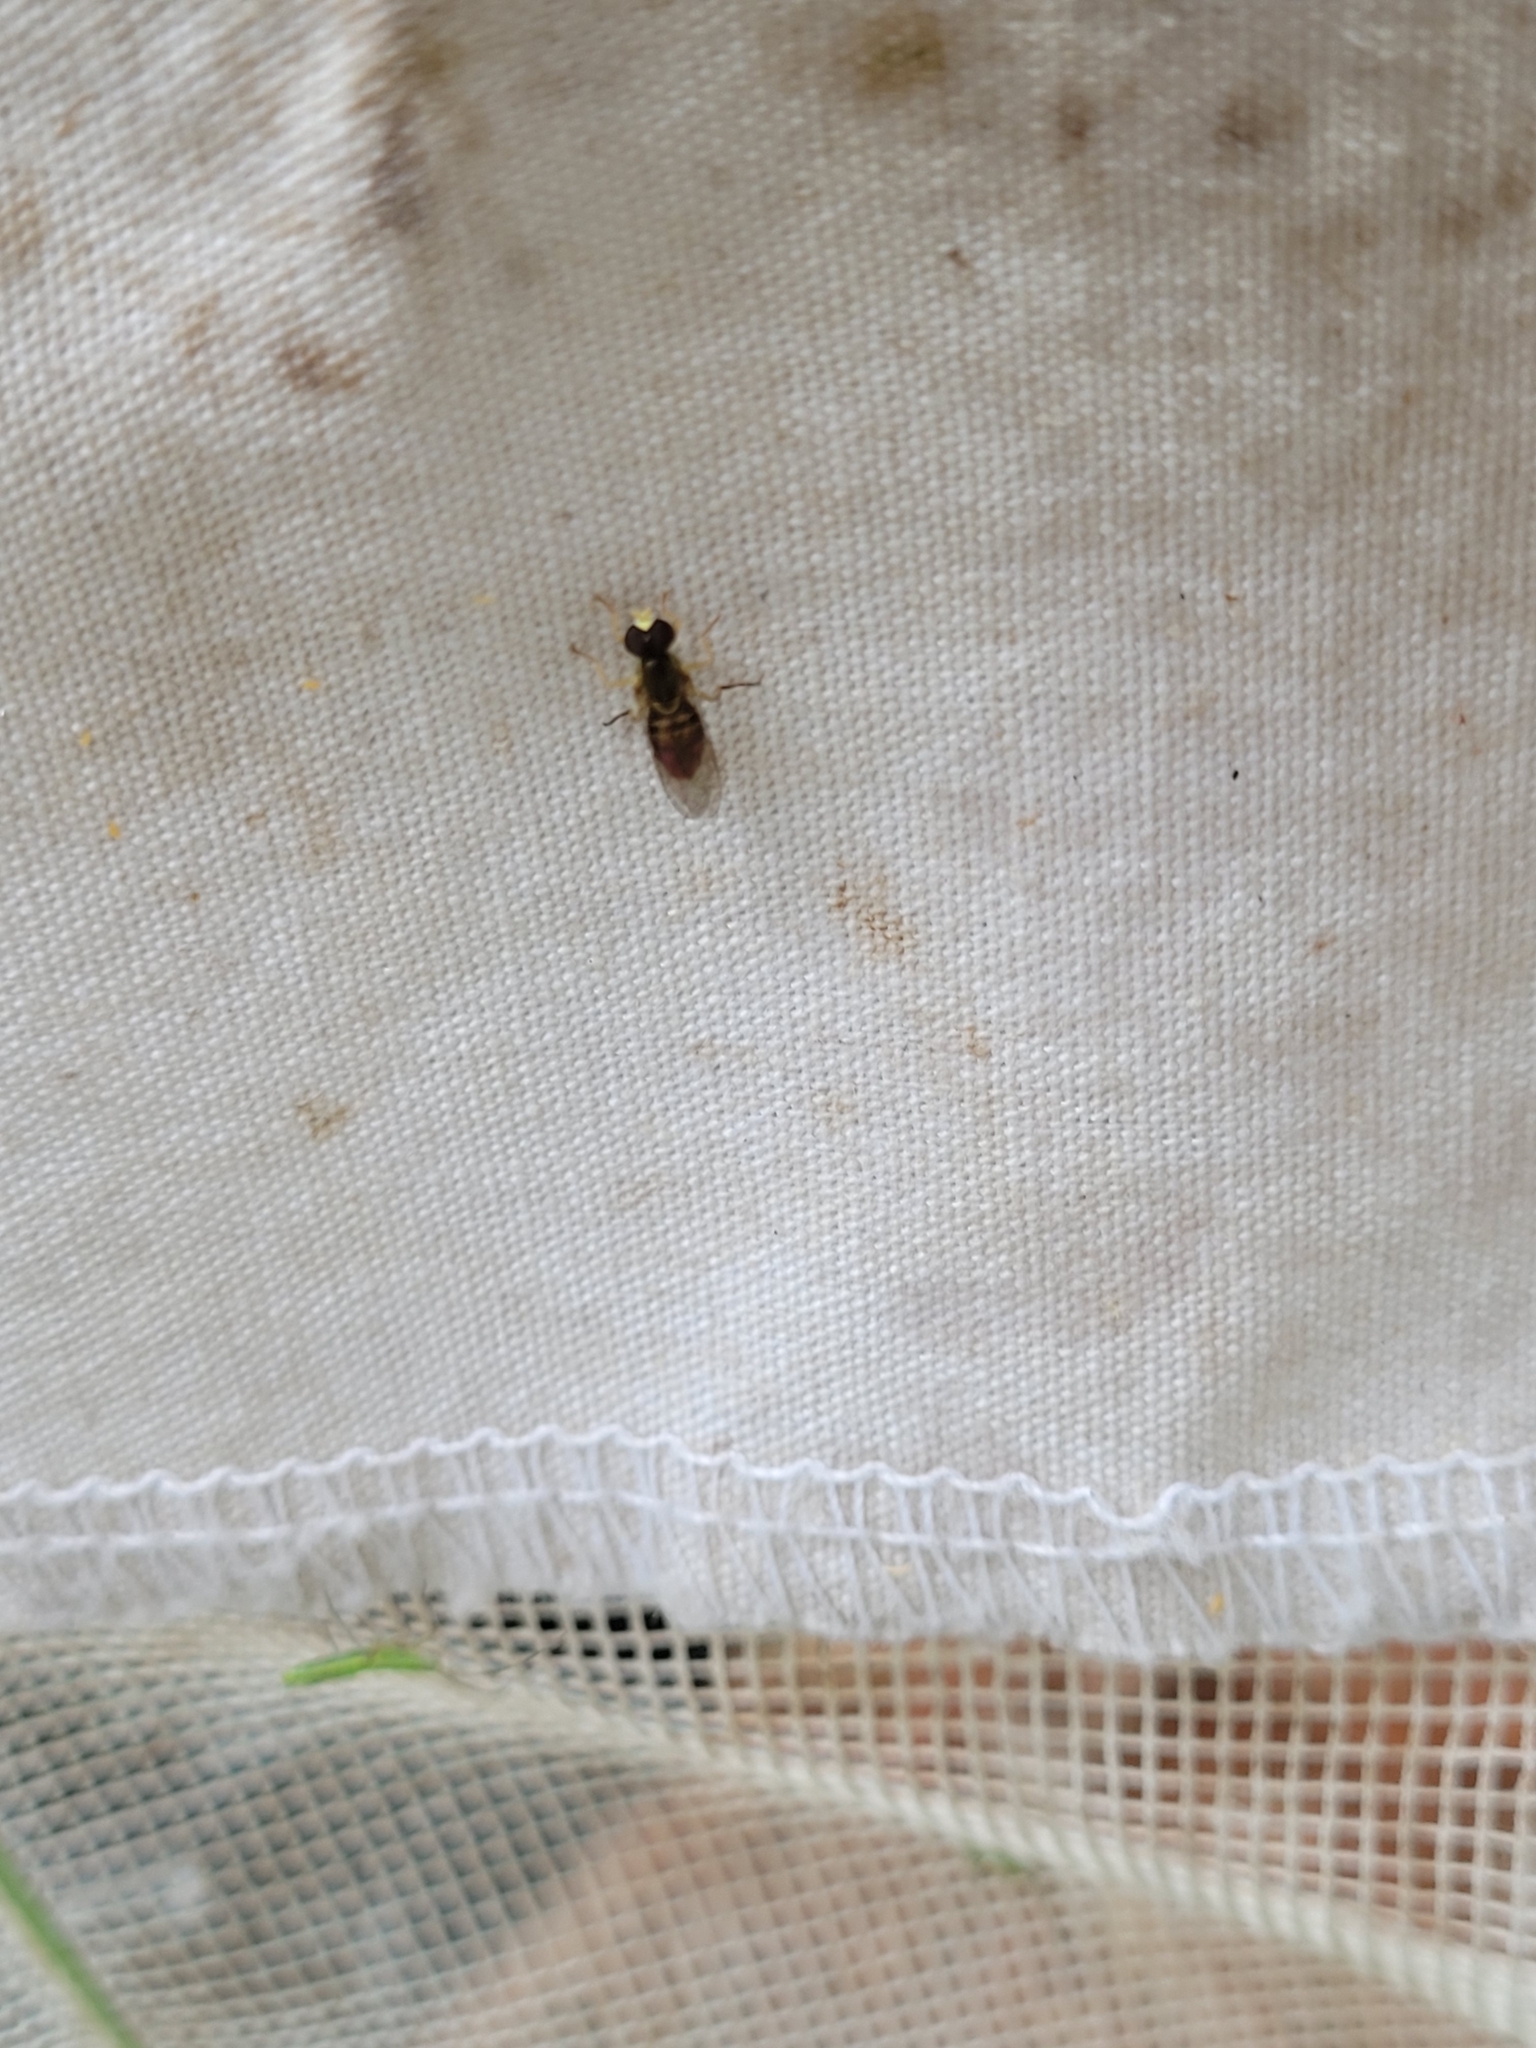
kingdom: Animalia
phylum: Arthropoda
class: Insecta
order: Diptera
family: Syrphidae
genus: Toxomerus
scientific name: Toxomerus marginatus
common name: Syrphid fly
